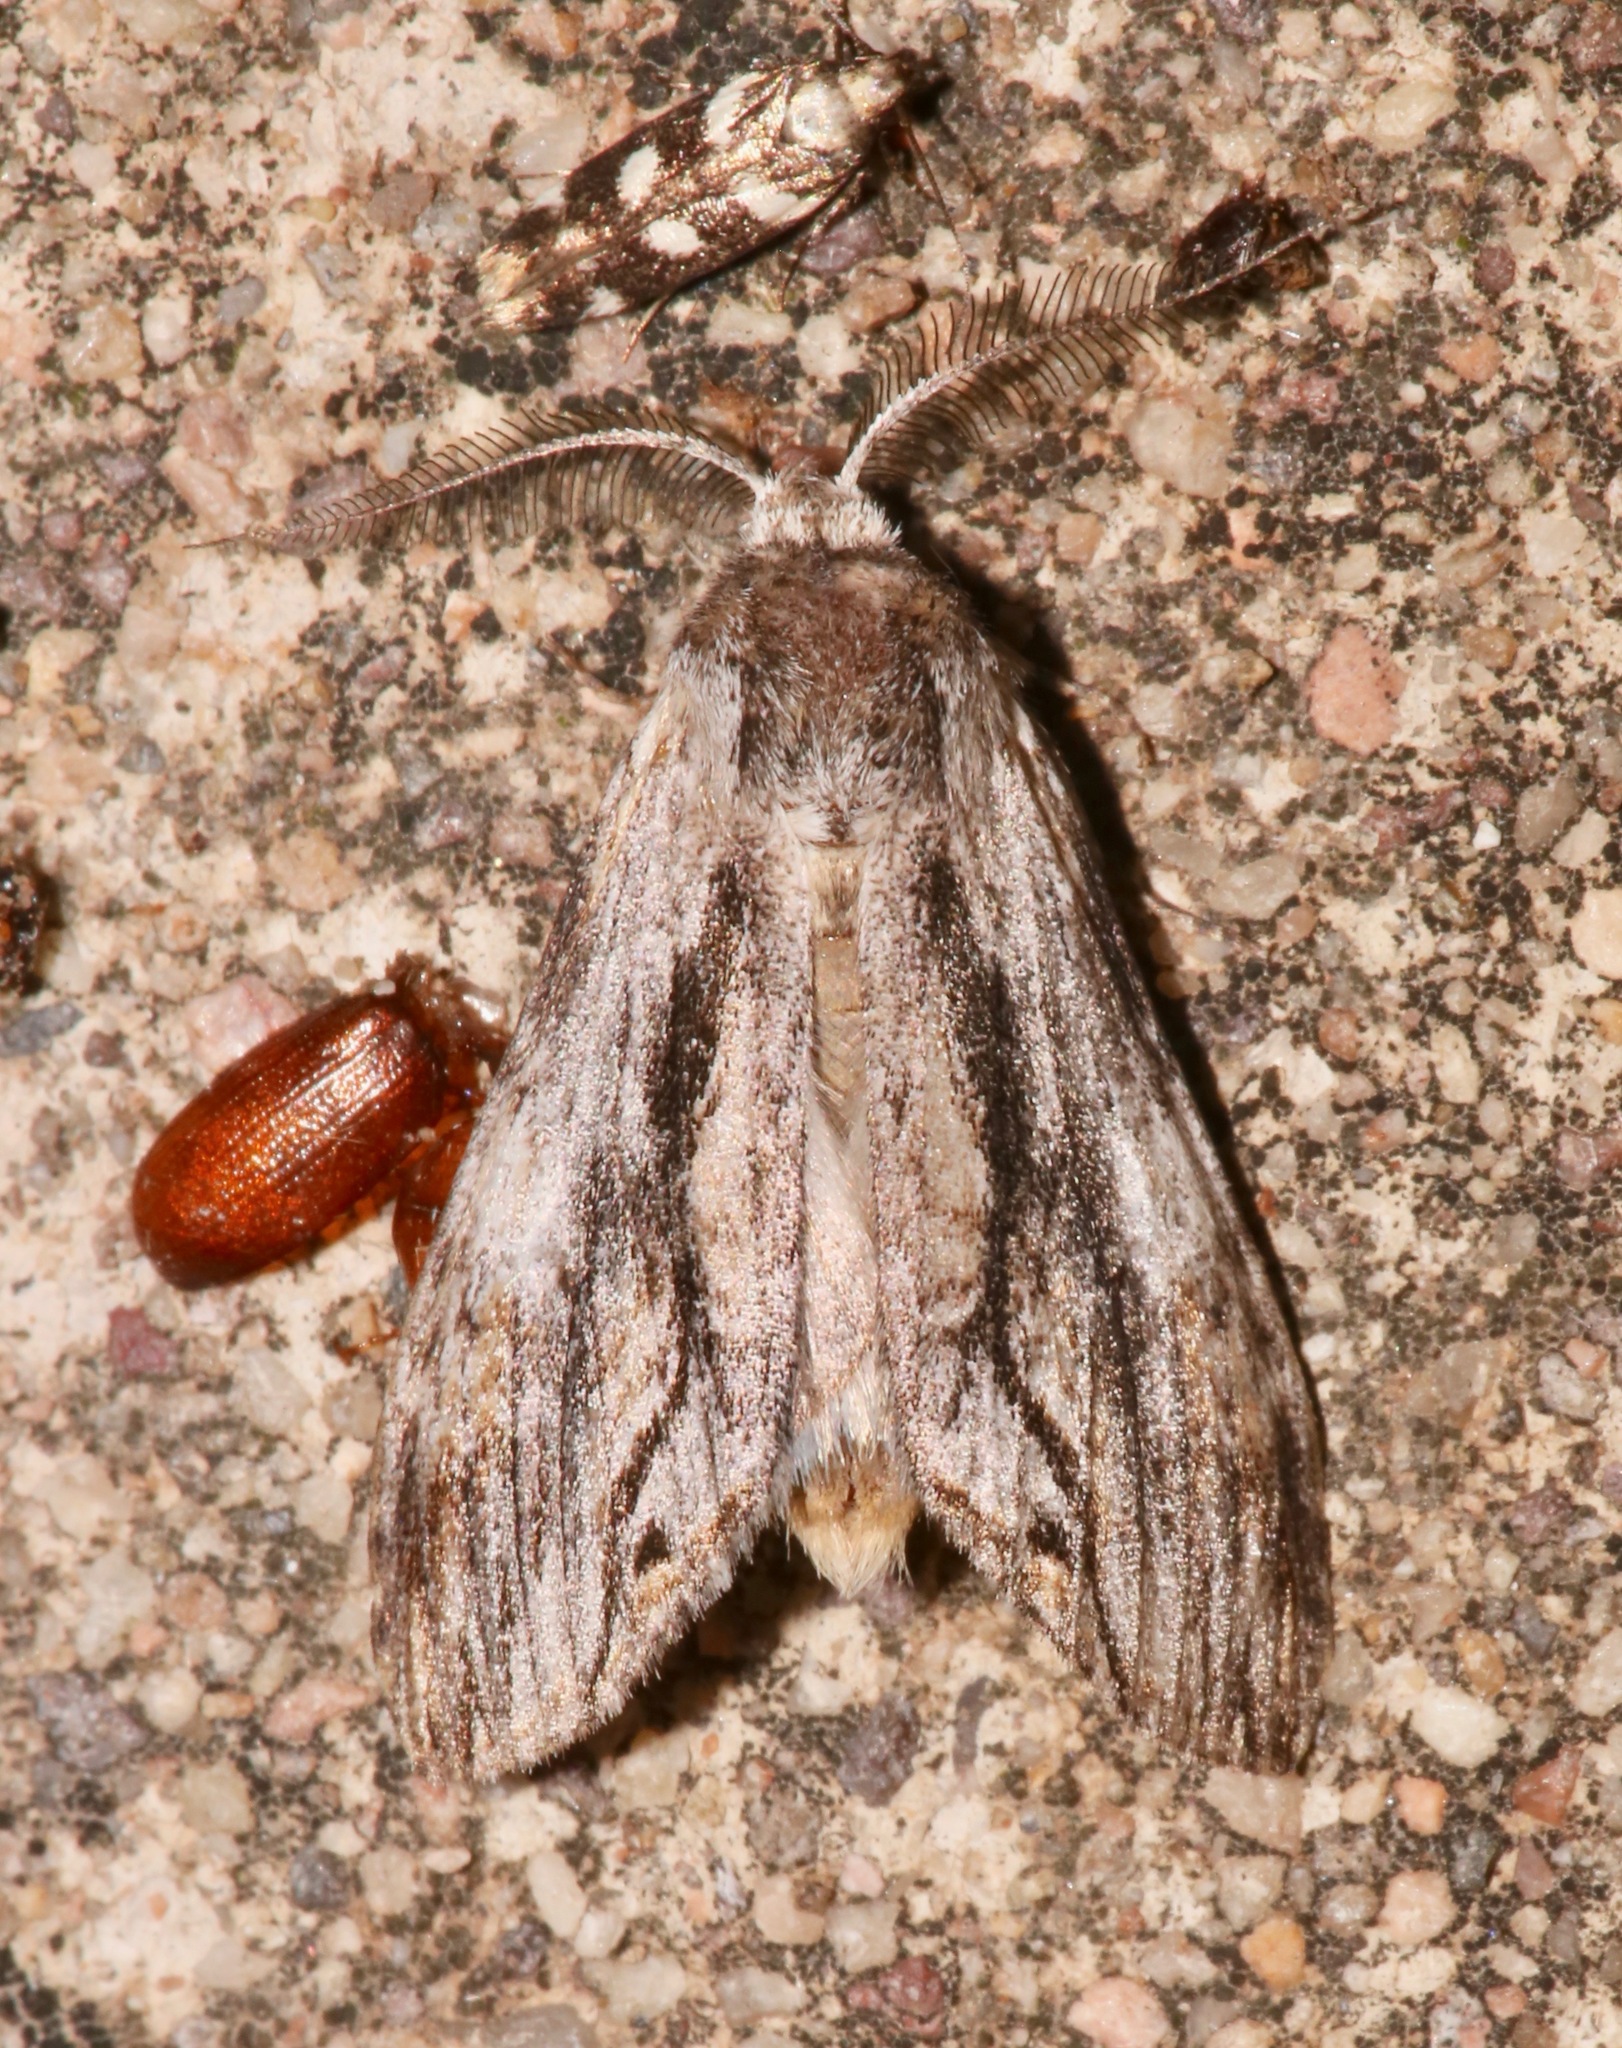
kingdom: Animalia
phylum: Arthropoda
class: Insecta
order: Lepidoptera
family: Notodontidae
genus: Notela
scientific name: Notela jaliscana
